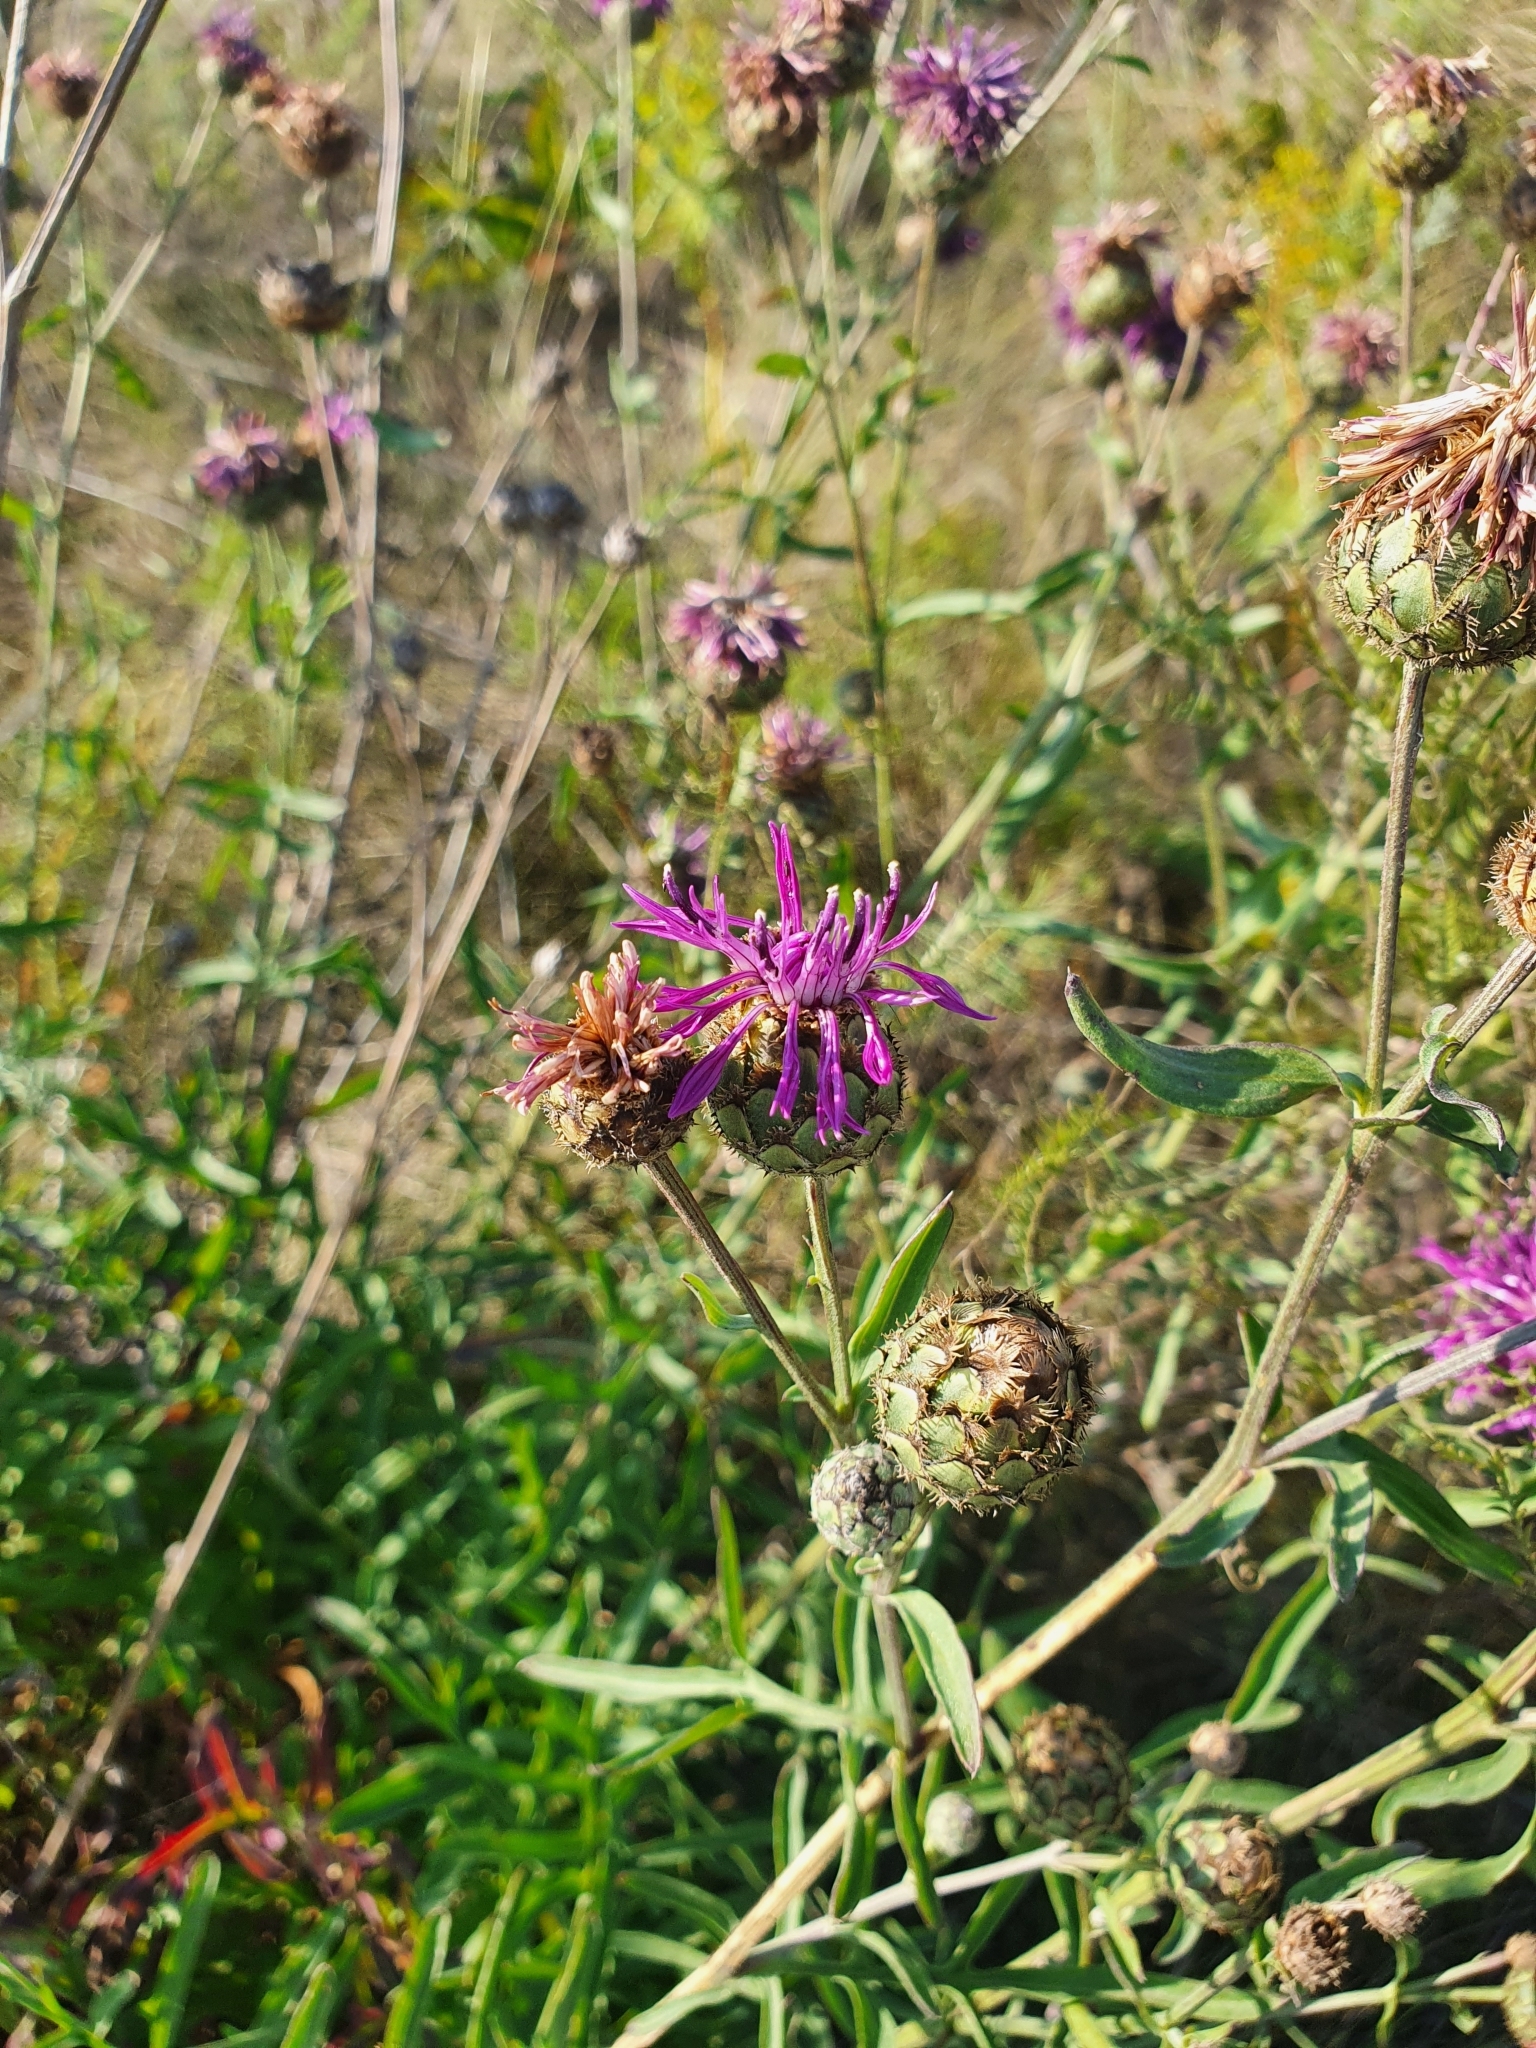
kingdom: Plantae
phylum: Tracheophyta
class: Magnoliopsida
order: Asterales
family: Asteraceae
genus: Centaurea
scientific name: Centaurea scabiosa
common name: Greater knapweed
